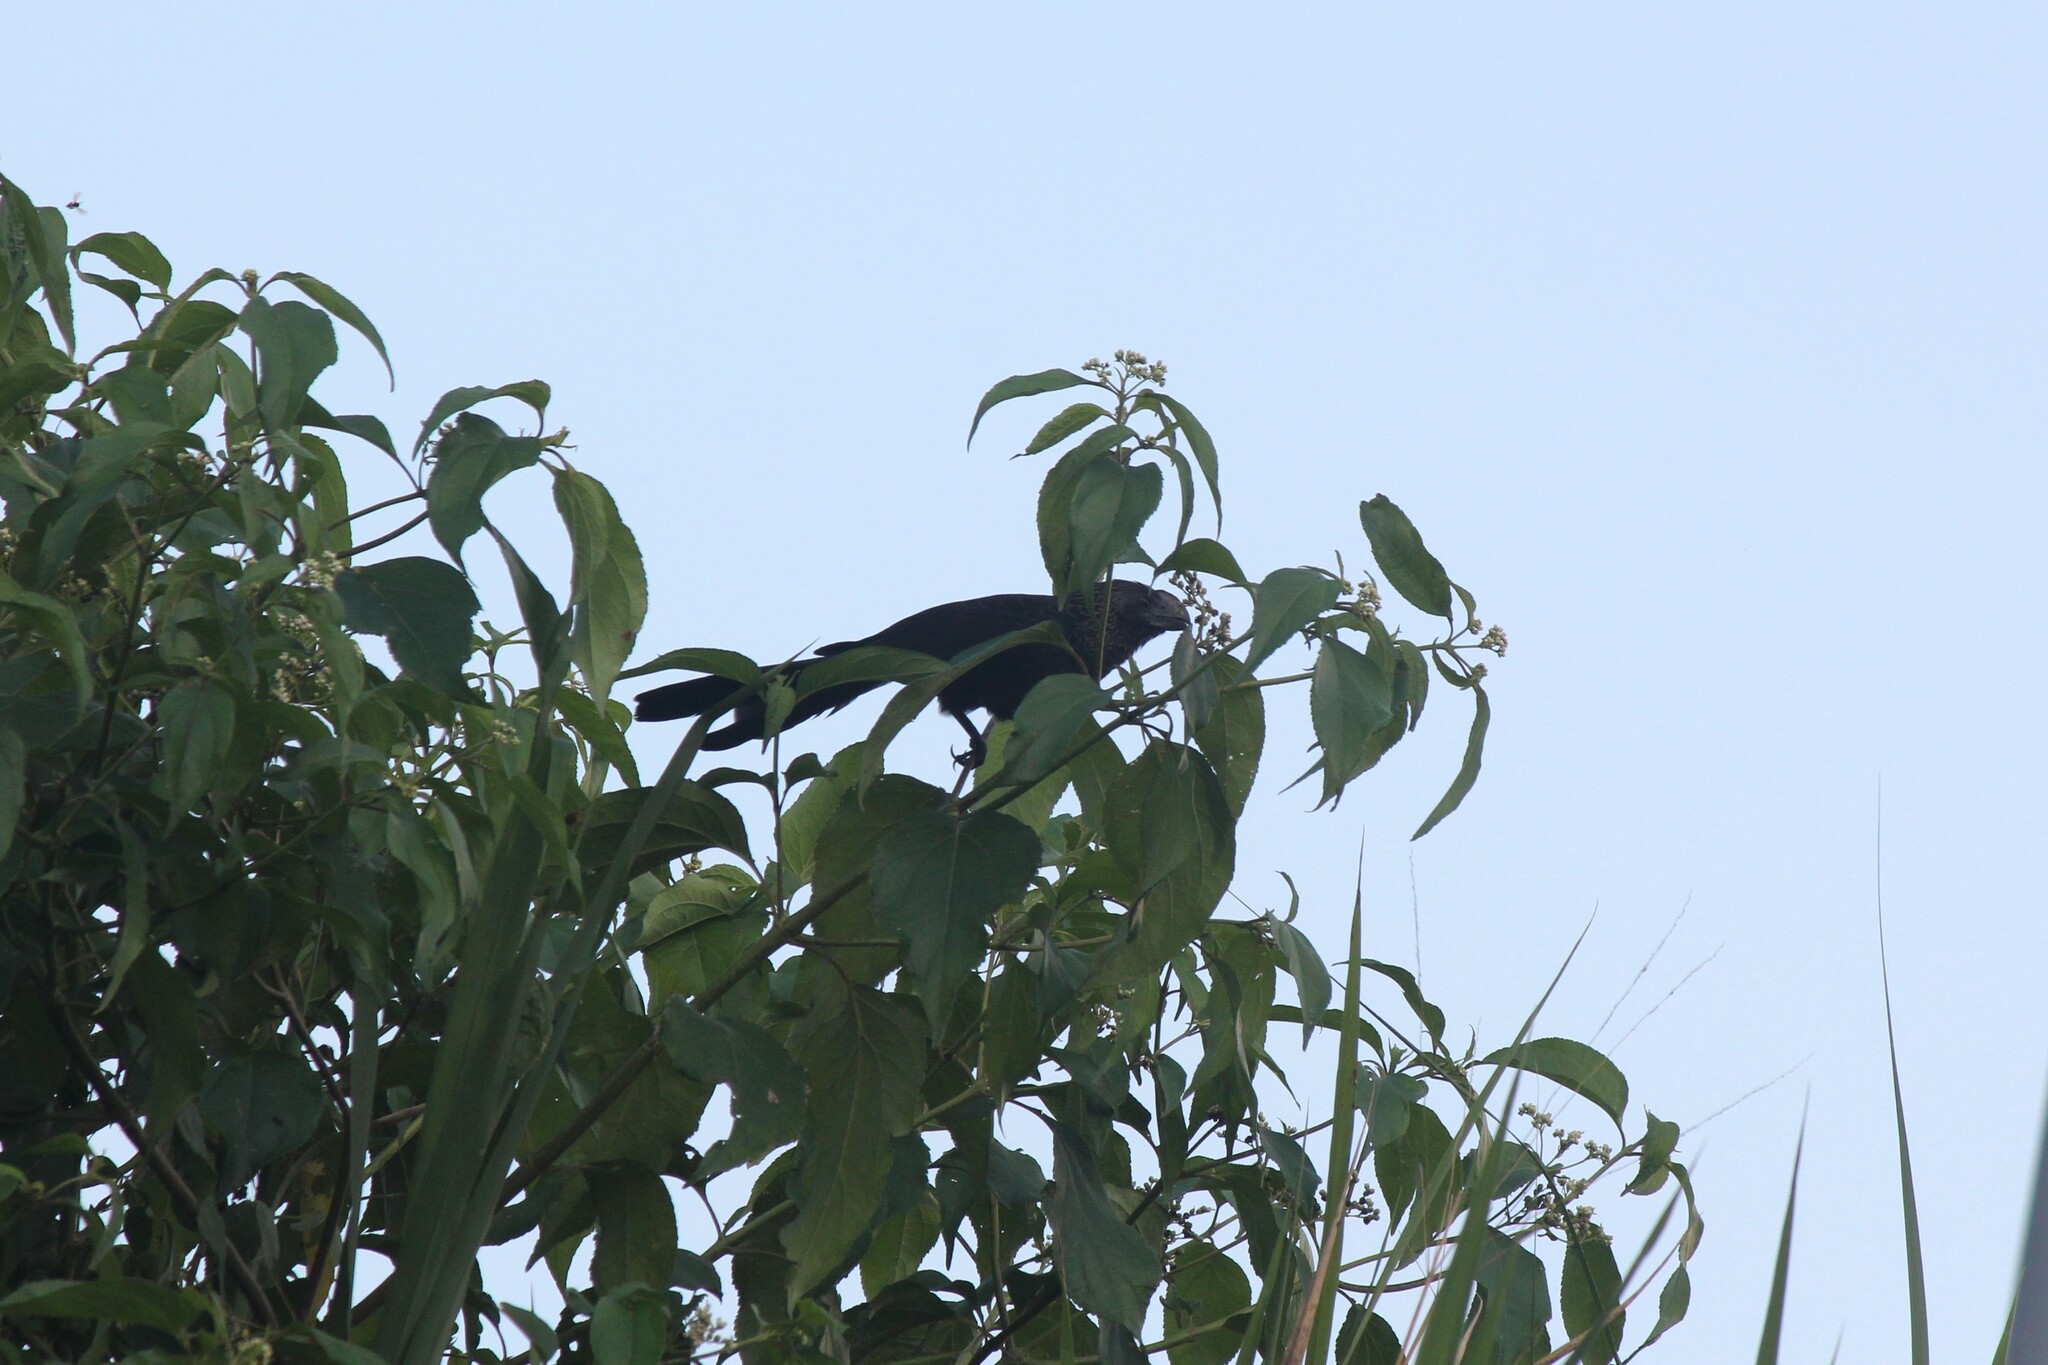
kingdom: Animalia
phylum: Chordata
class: Aves
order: Cuculiformes
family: Cuculidae
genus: Crotophaga
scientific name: Crotophaga ani
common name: Smooth-billed ani
